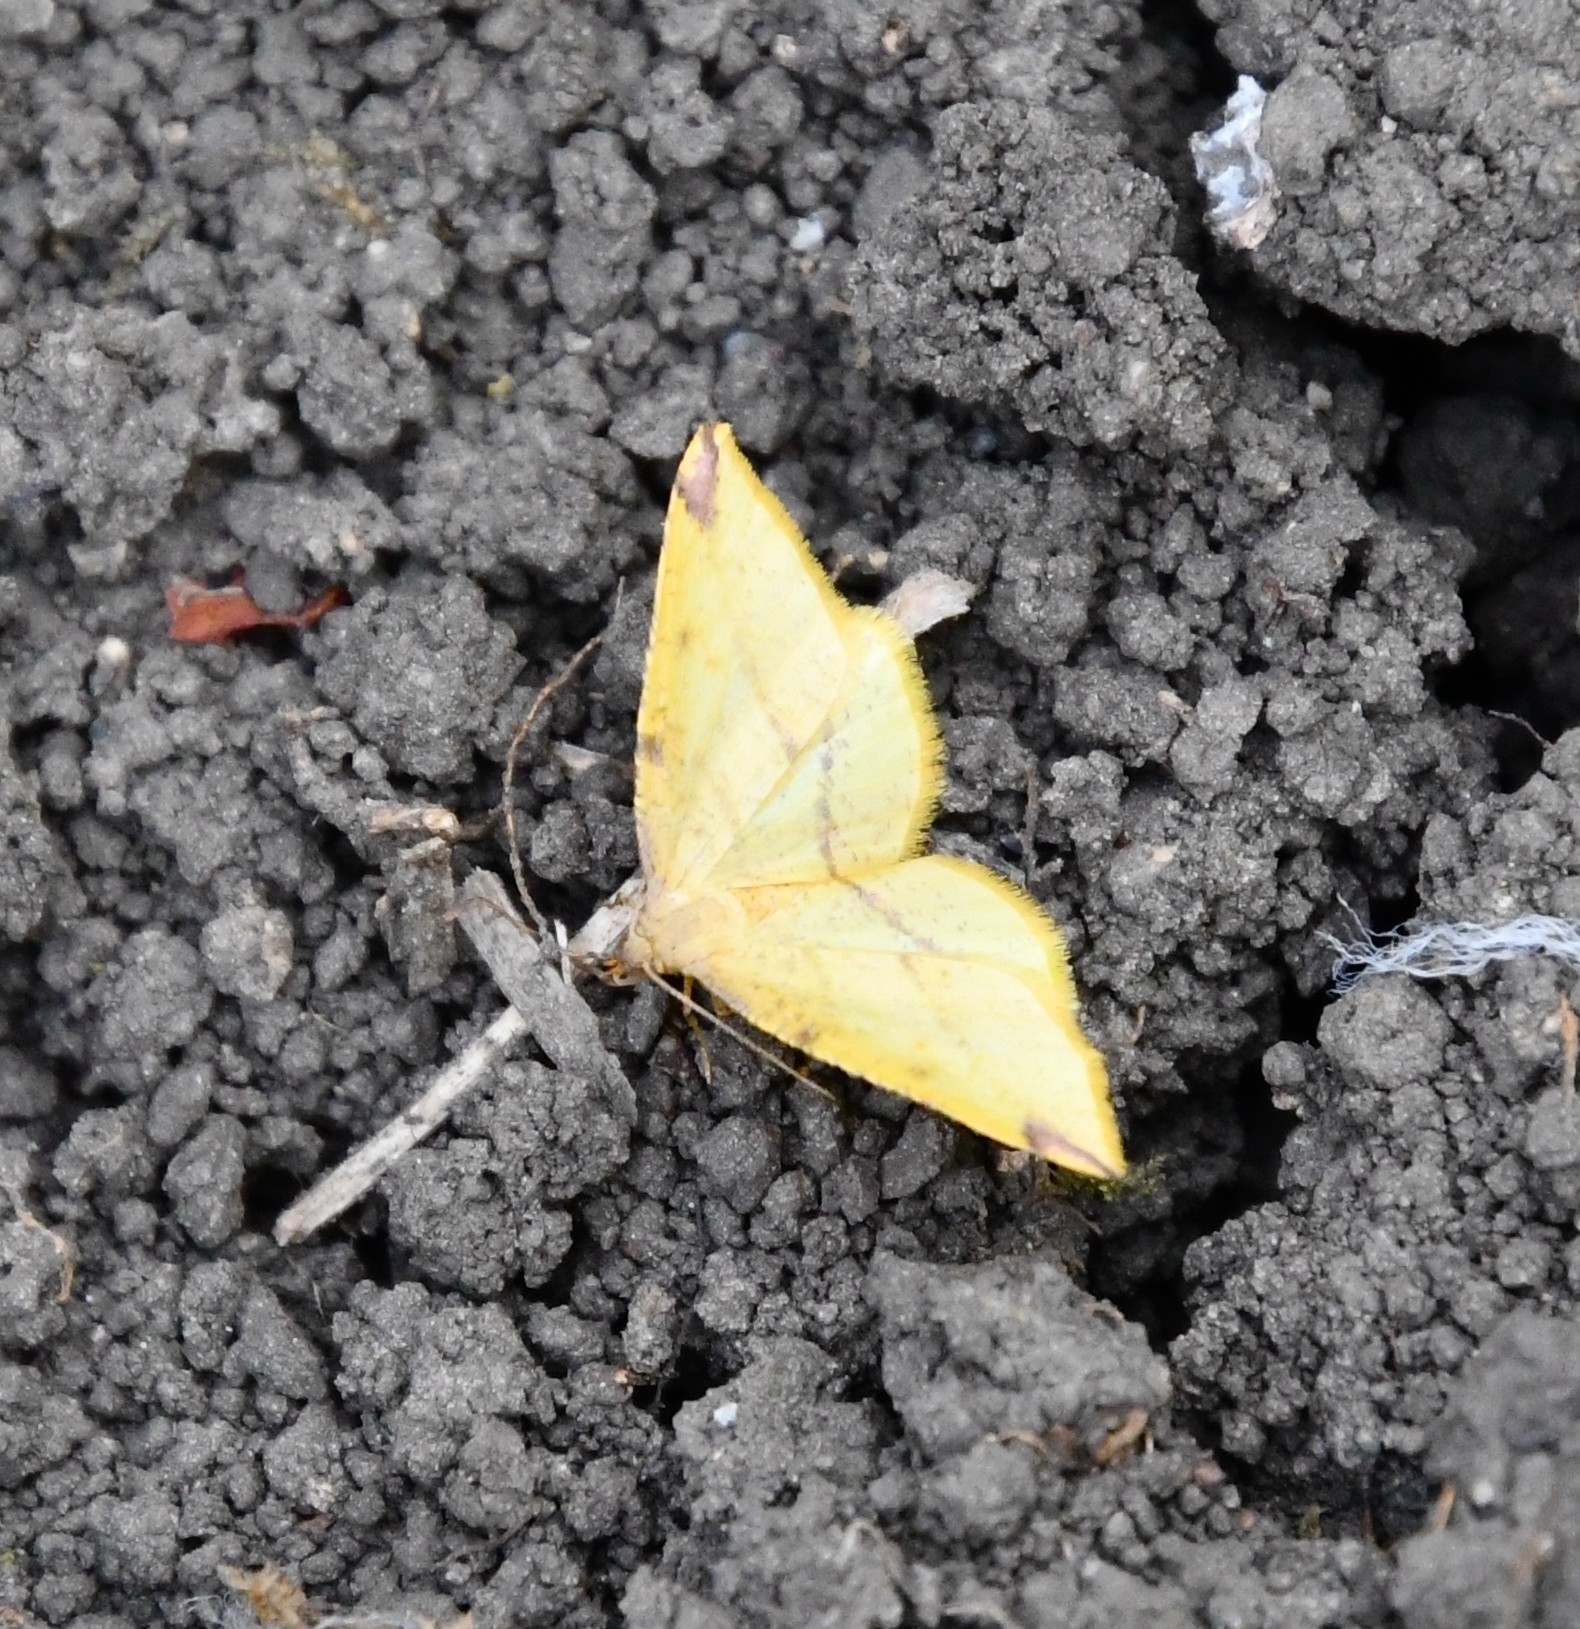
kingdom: Animalia
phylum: Arthropoda
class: Insecta
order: Lepidoptera
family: Geometridae
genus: Heterolocha
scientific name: Heterolocha laminaria
